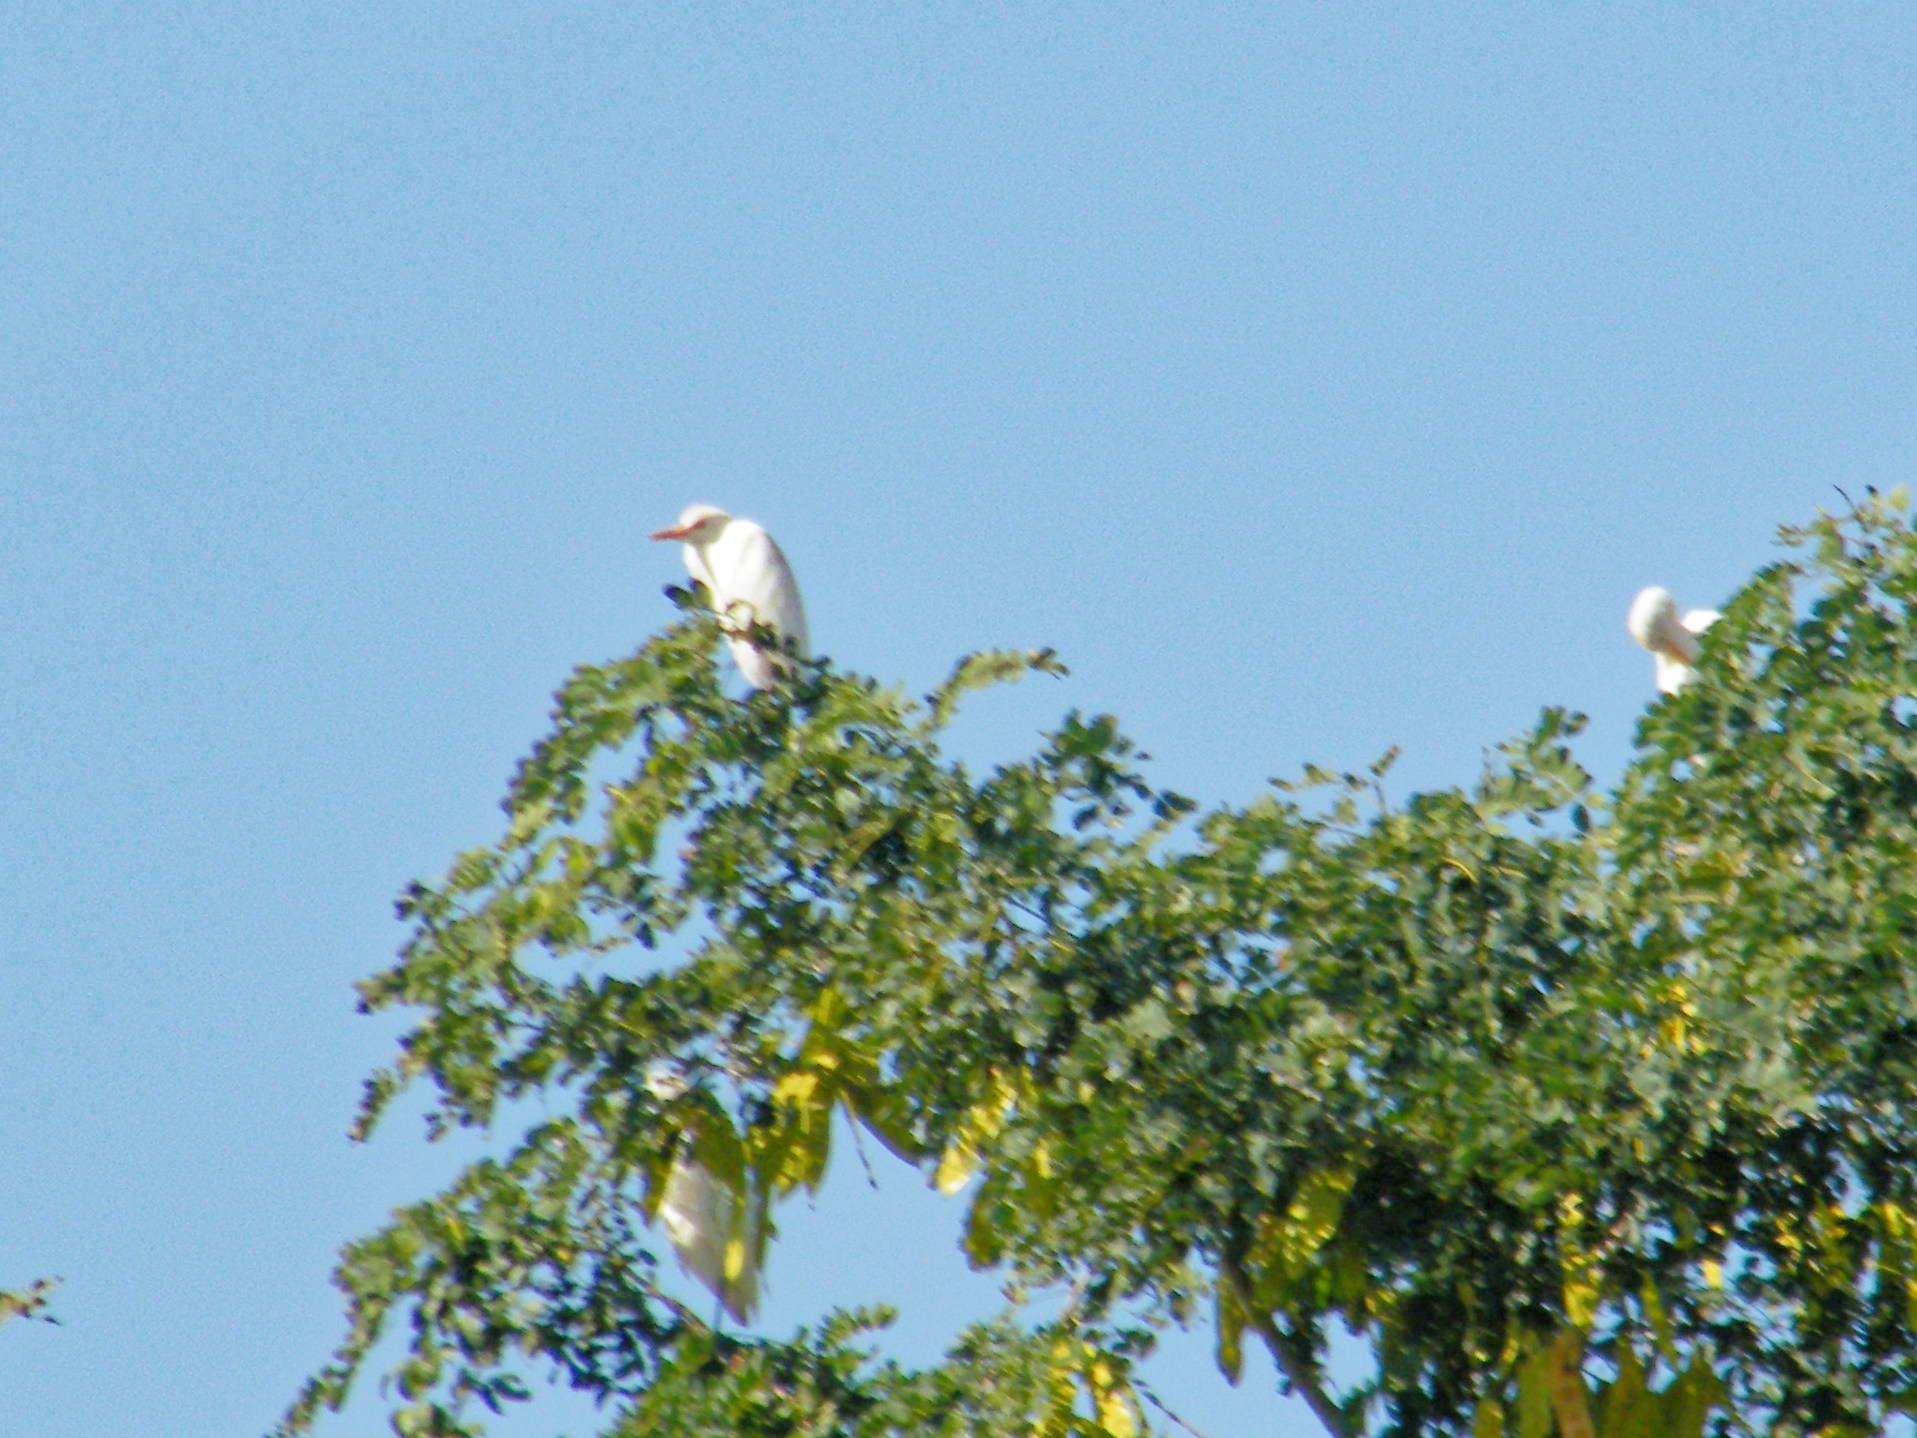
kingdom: Animalia
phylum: Chordata
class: Aves
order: Pelecaniformes
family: Ardeidae
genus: Bubulcus
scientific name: Bubulcus ibis
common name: Cattle egret
